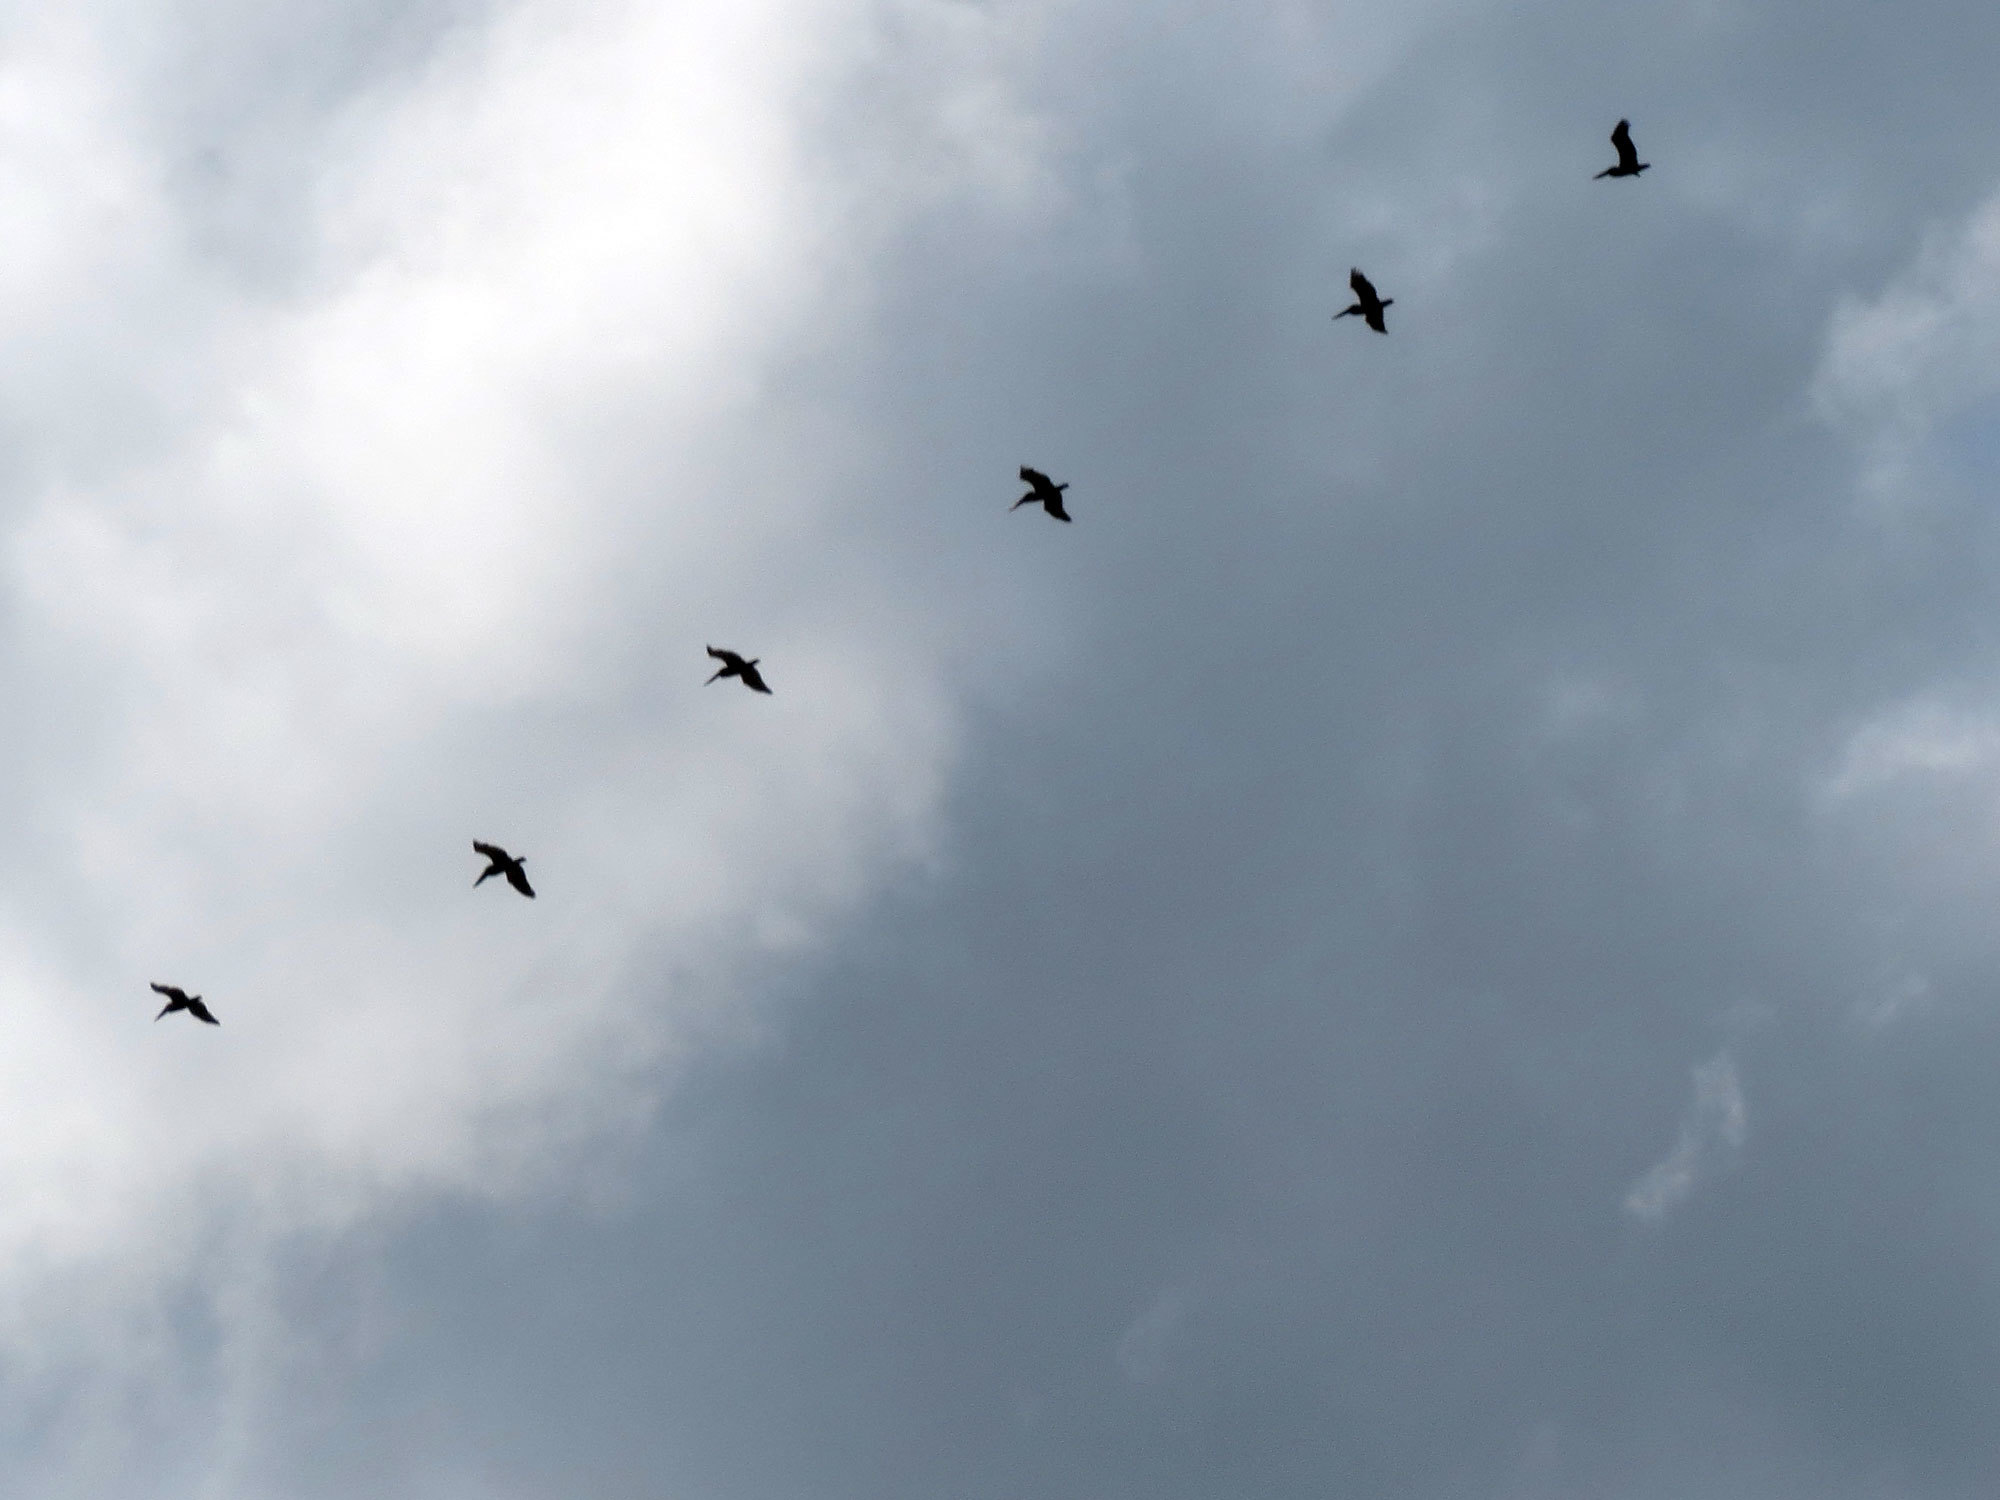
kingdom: Animalia
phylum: Chordata
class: Aves
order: Pelecaniformes
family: Pelecanidae
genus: Pelecanus
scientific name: Pelecanus occidentalis
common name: Brown pelican
